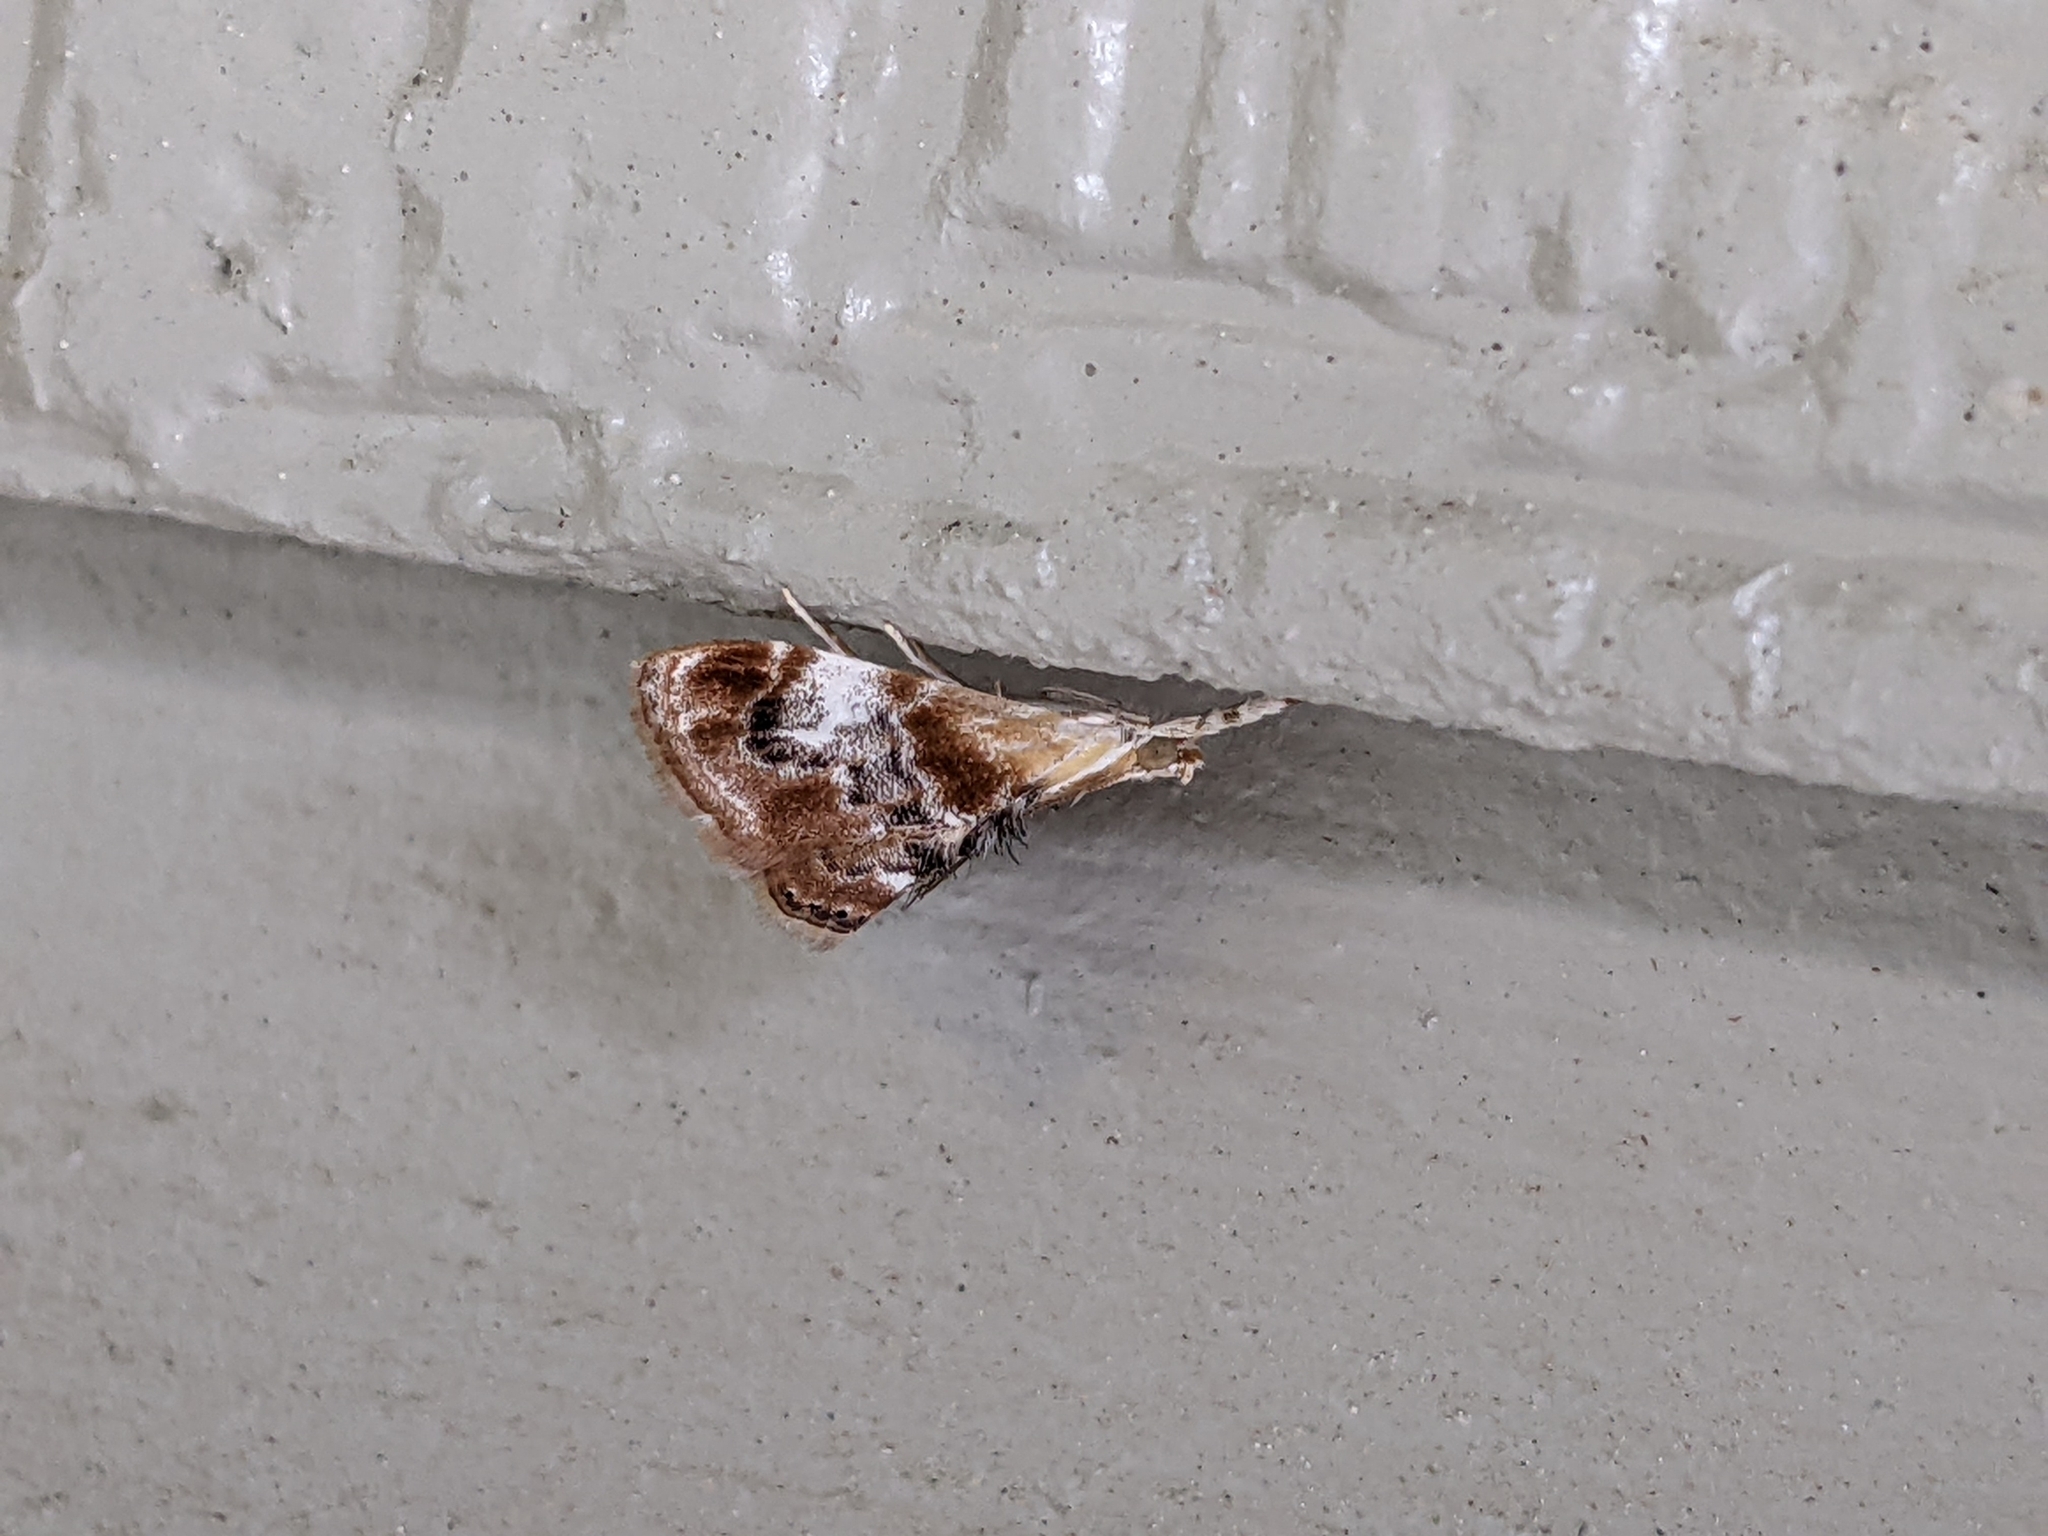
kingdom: Animalia
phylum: Arthropoda
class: Insecta
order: Lepidoptera
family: Crambidae
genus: Dicymolomia
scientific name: Dicymolomia julianalis
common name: Julia's dicymolomia moth
